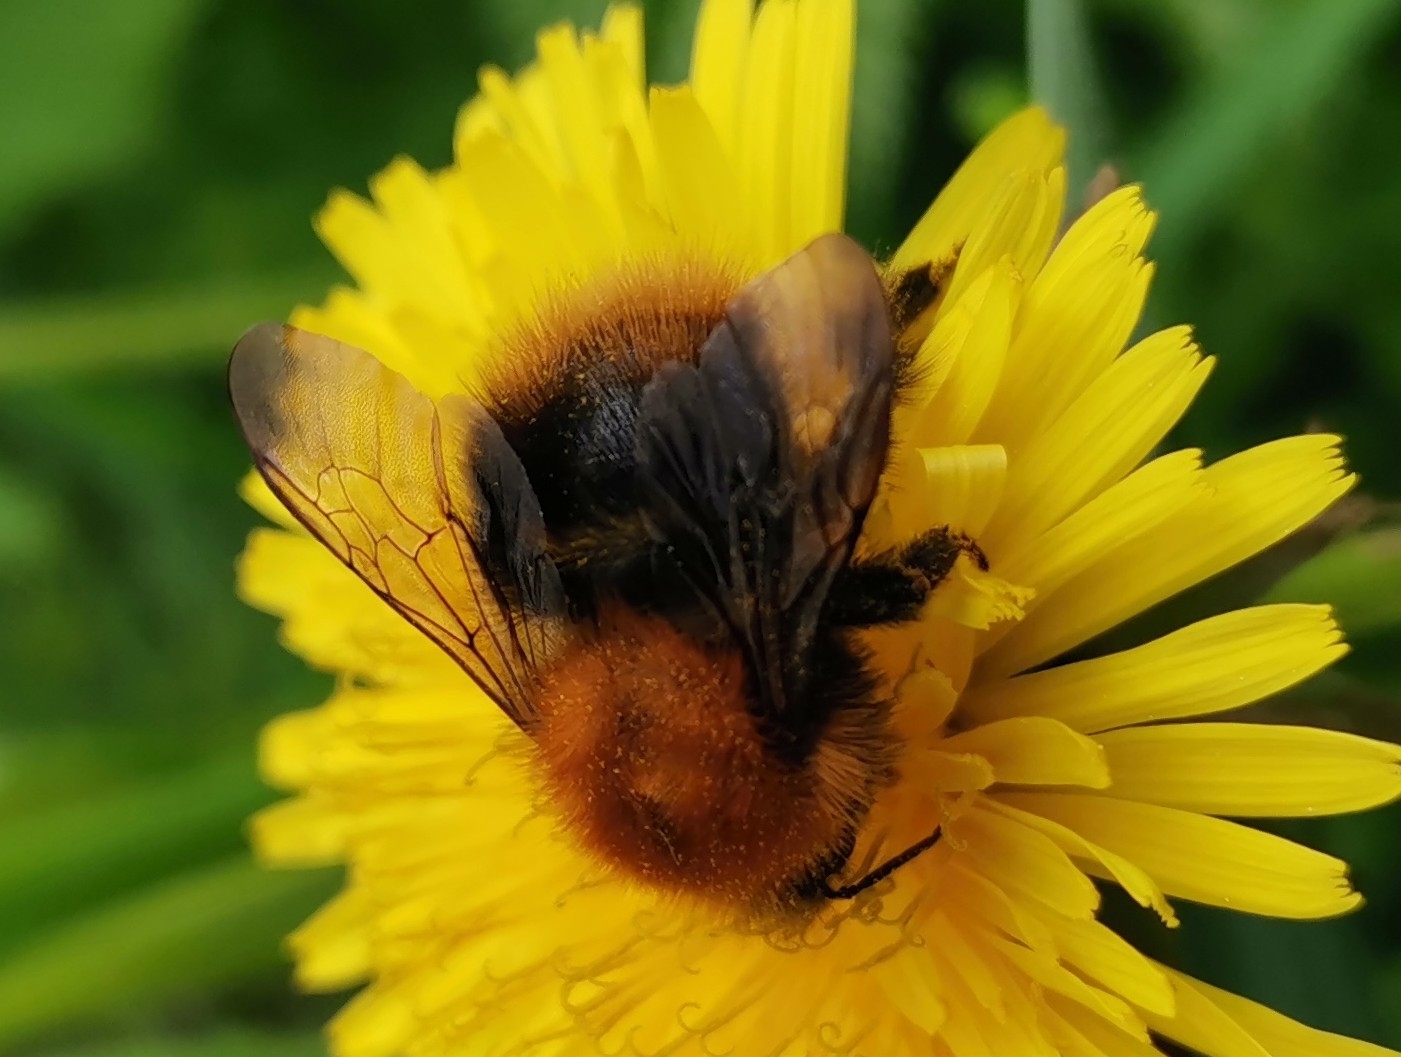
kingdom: Animalia
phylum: Arthropoda
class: Insecta
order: Hymenoptera
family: Apidae
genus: Bombus
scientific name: Bombus pascuorum
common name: Common carder bee
